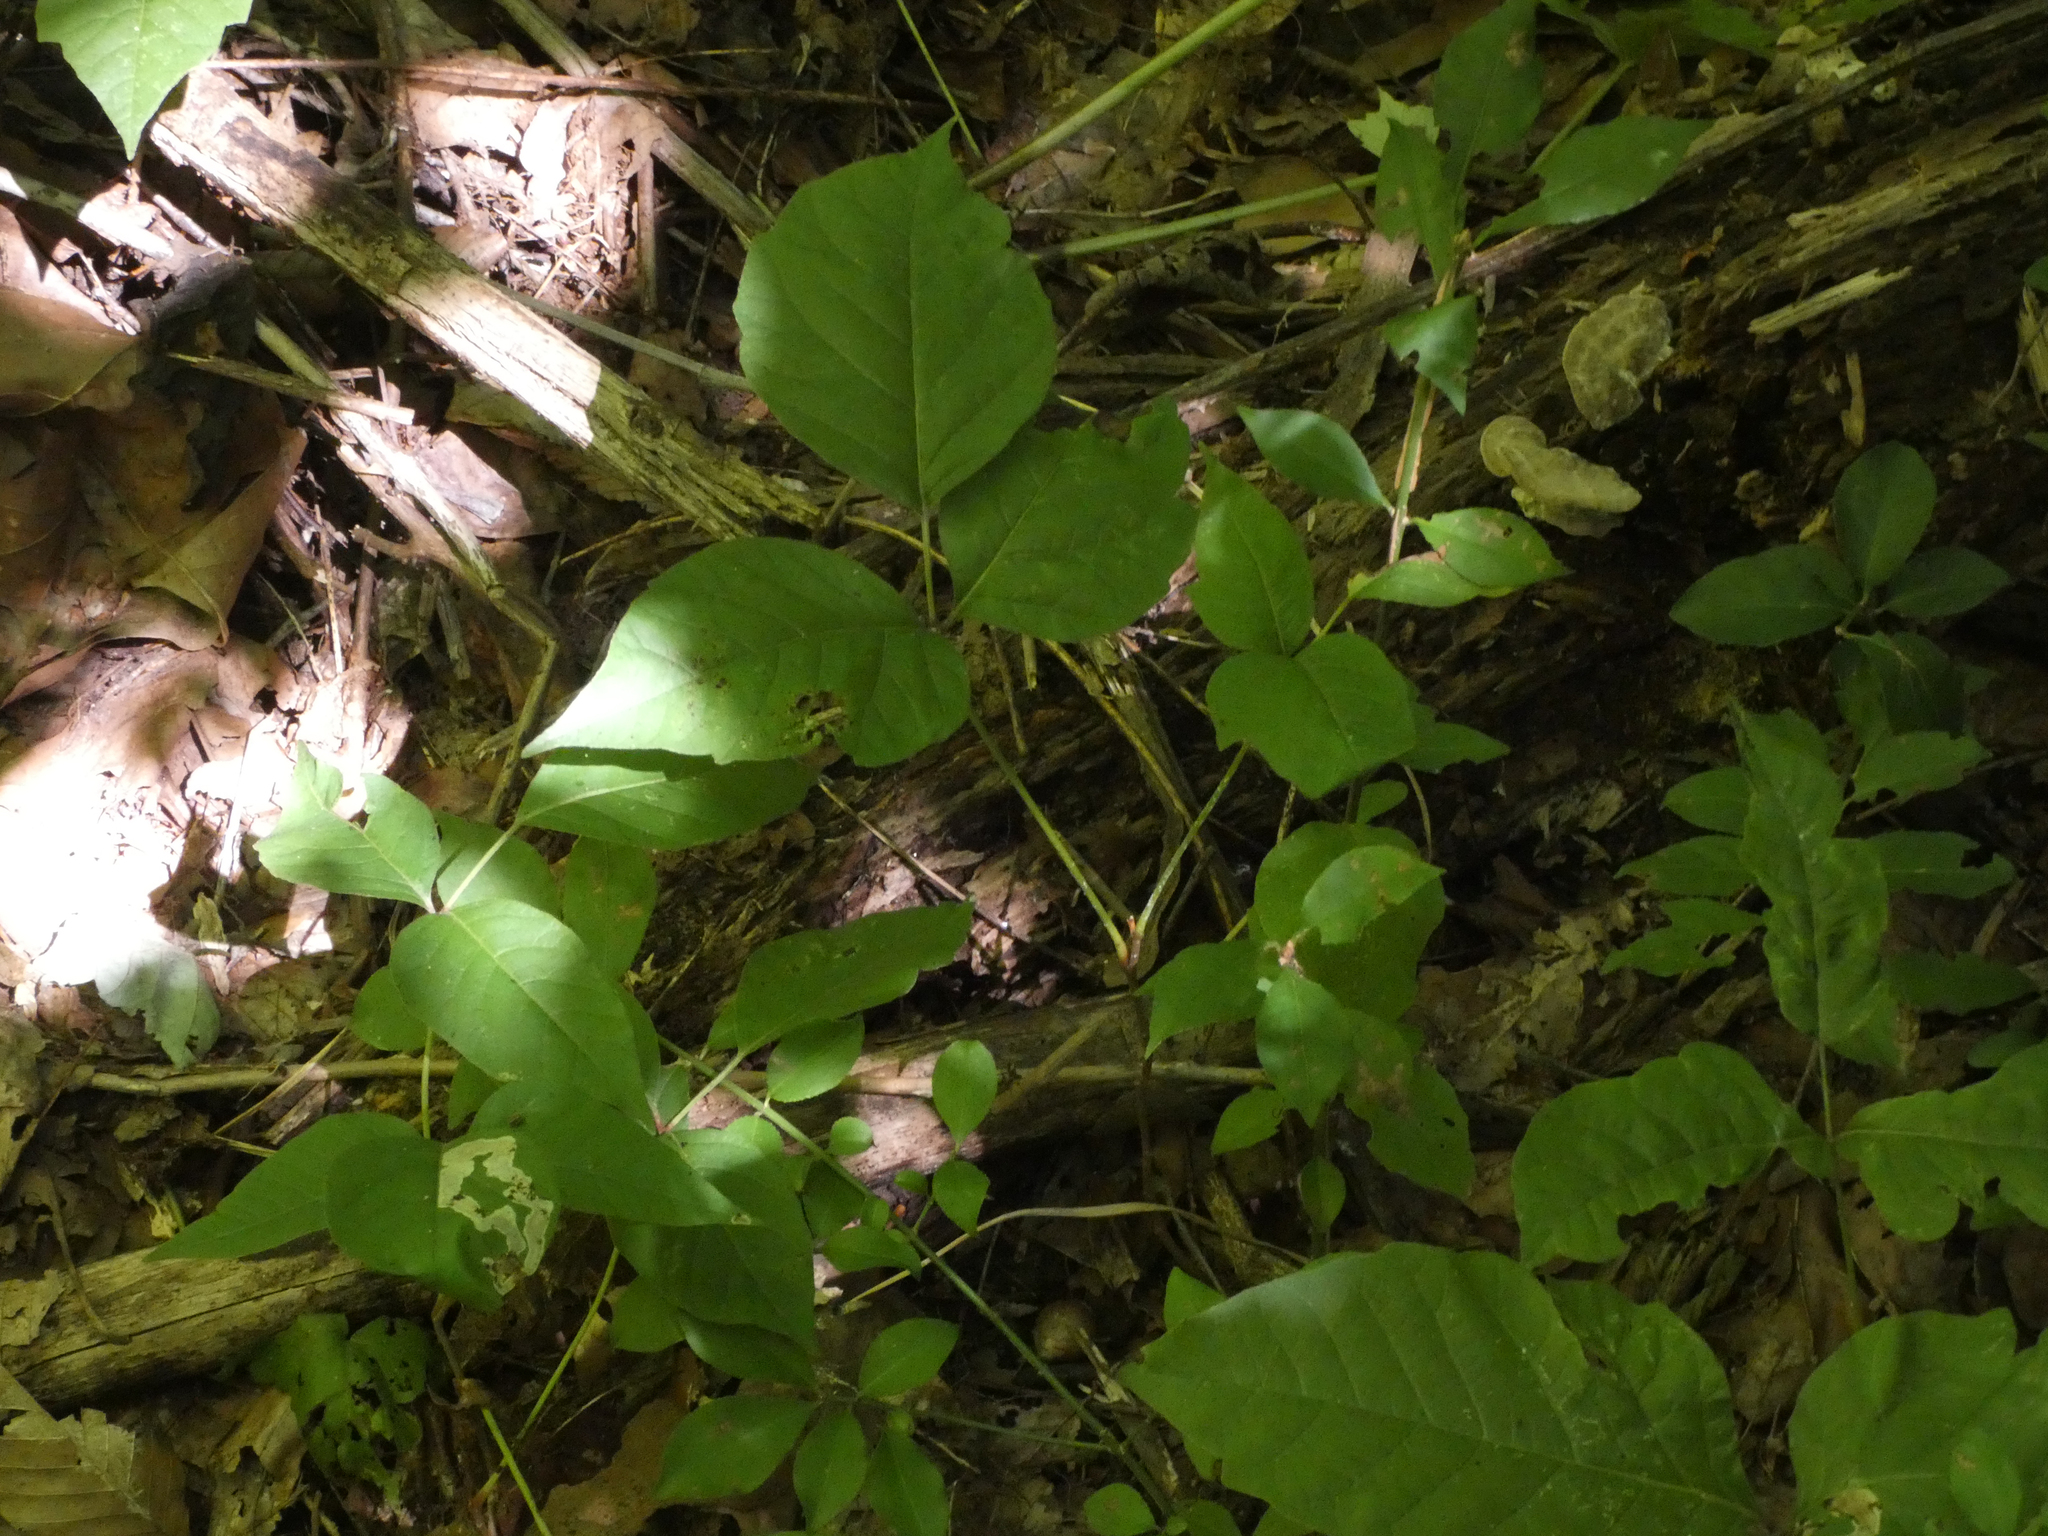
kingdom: Plantae
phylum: Tracheophyta
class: Magnoliopsida
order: Sapindales
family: Anacardiaceae
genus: Toxicodendron
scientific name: Toxicodendron radicans
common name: Poison ivy
